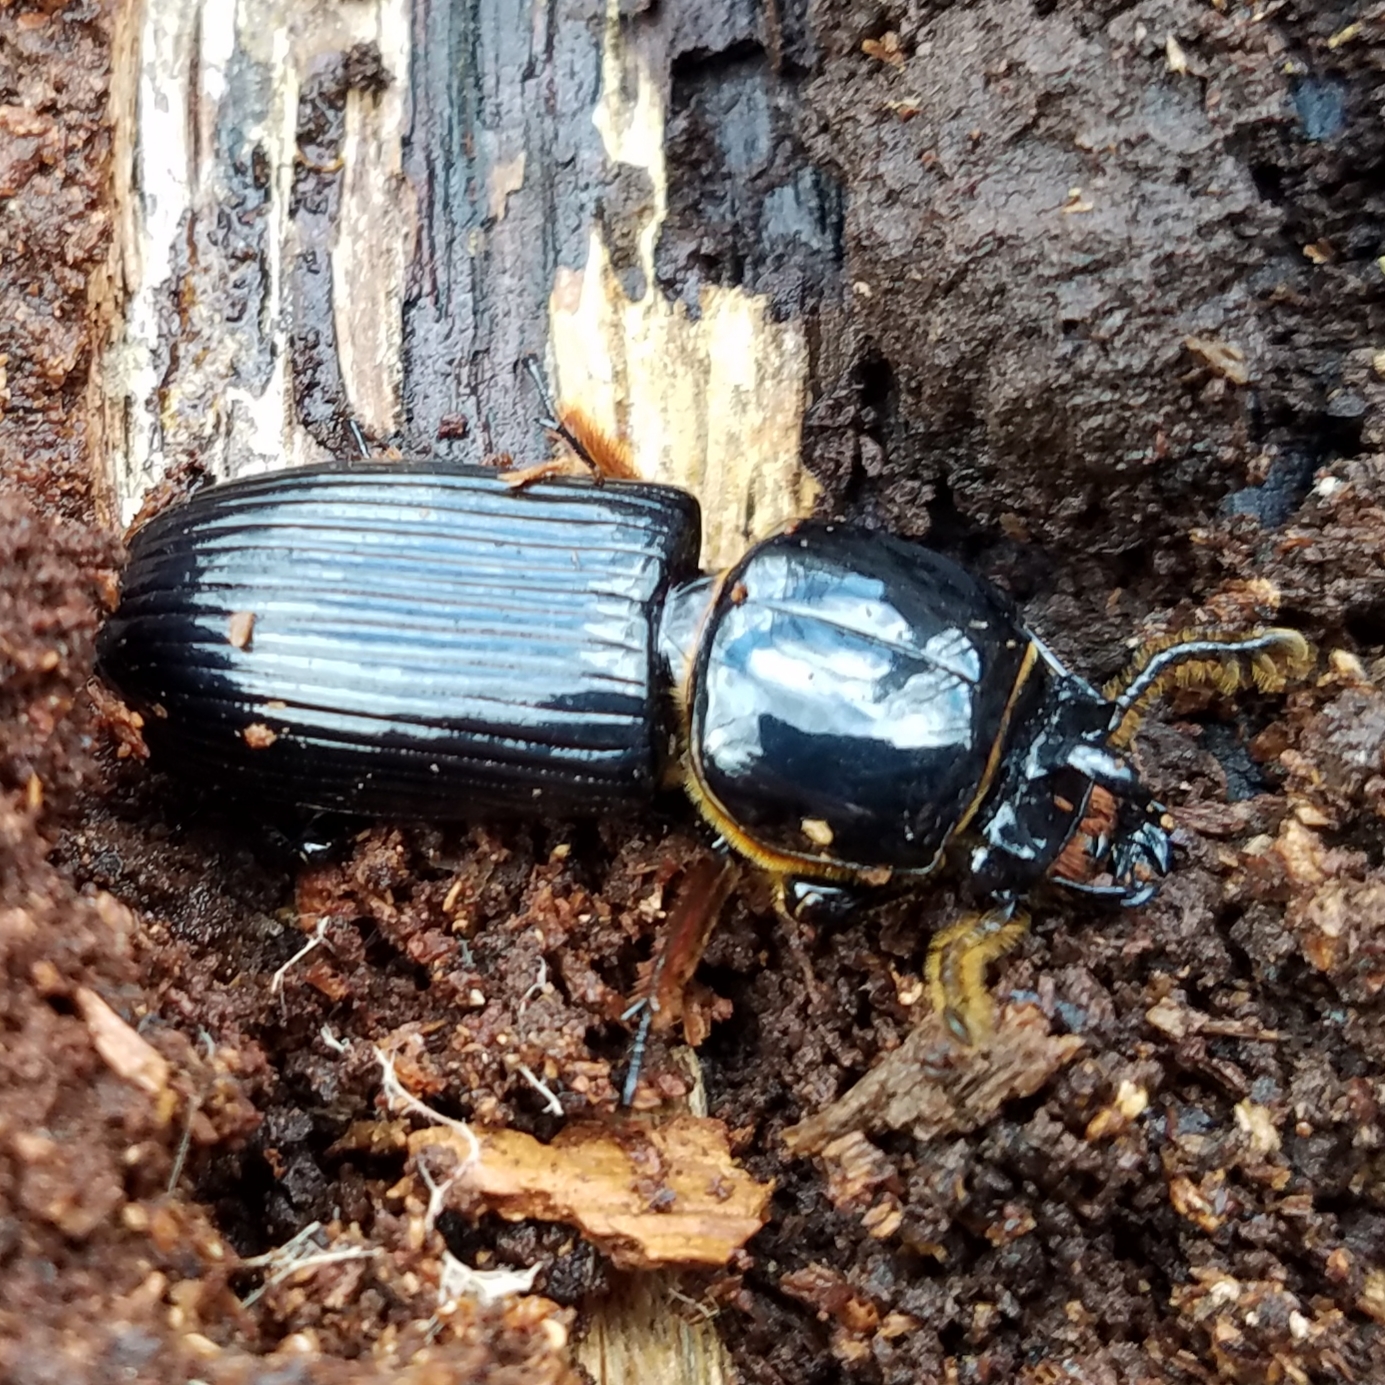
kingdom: Animalia
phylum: Arthropoda
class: Insecta
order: Coleoptera
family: Passalidae
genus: Odontotaenius
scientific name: Odontotaenius disjunctus
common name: Patent leather beetle
